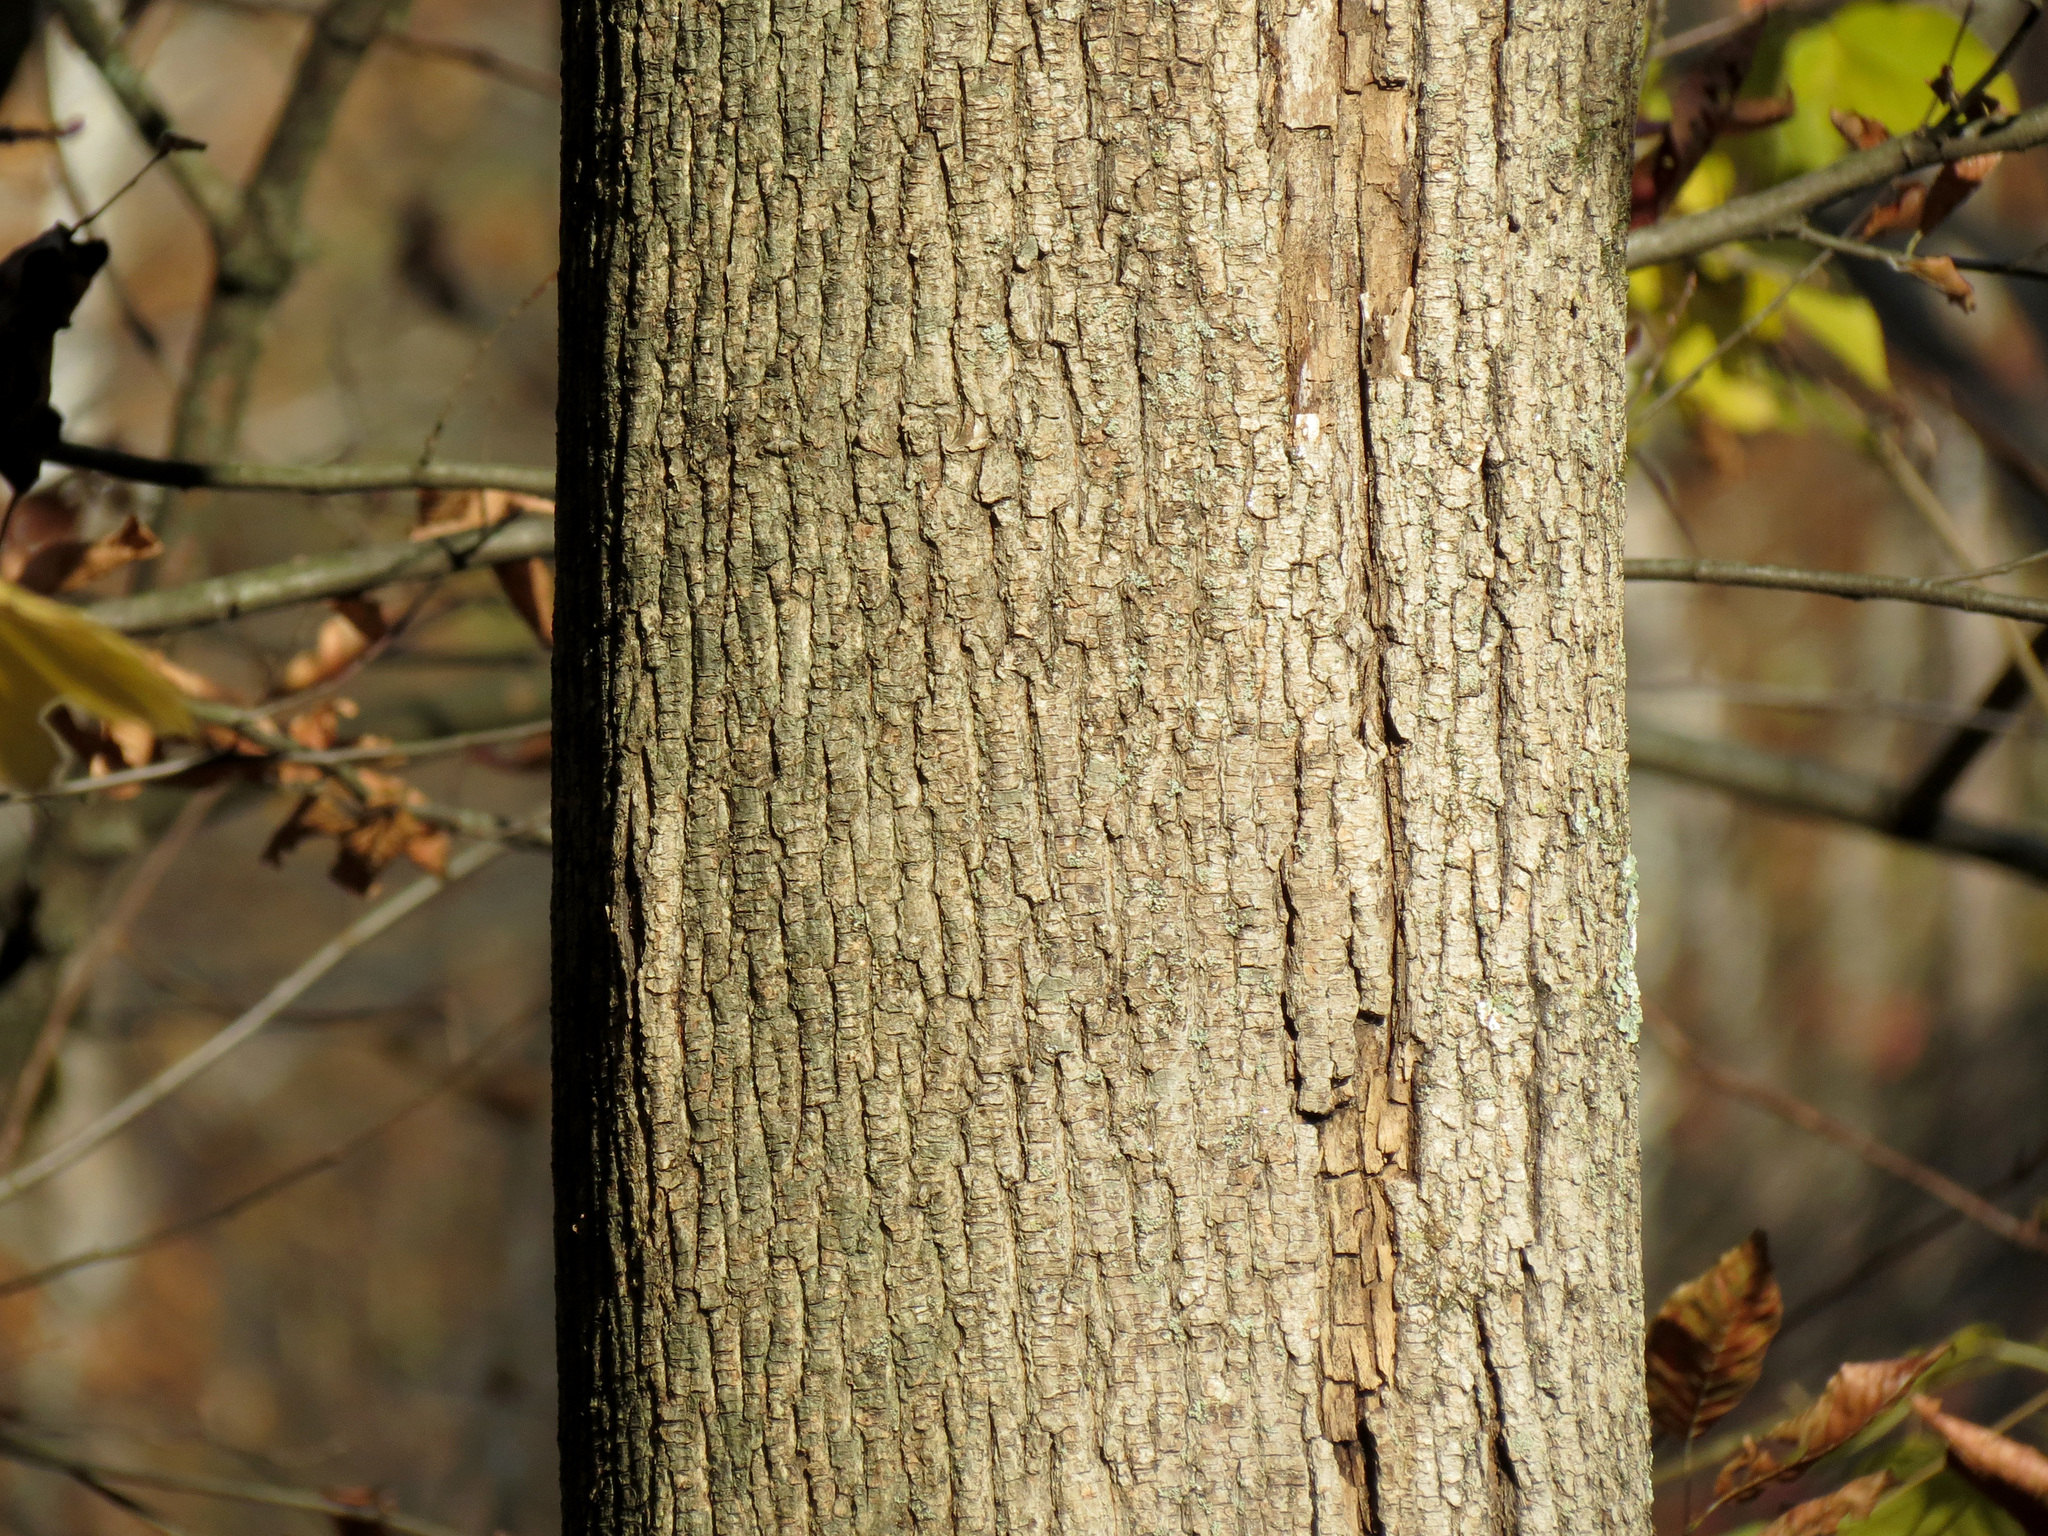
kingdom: Plantae
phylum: Tracheophyta
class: Magnoliopsida
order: Sapindales
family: Sapindaceae
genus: Acer
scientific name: Acer platanoides
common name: Norway maple
